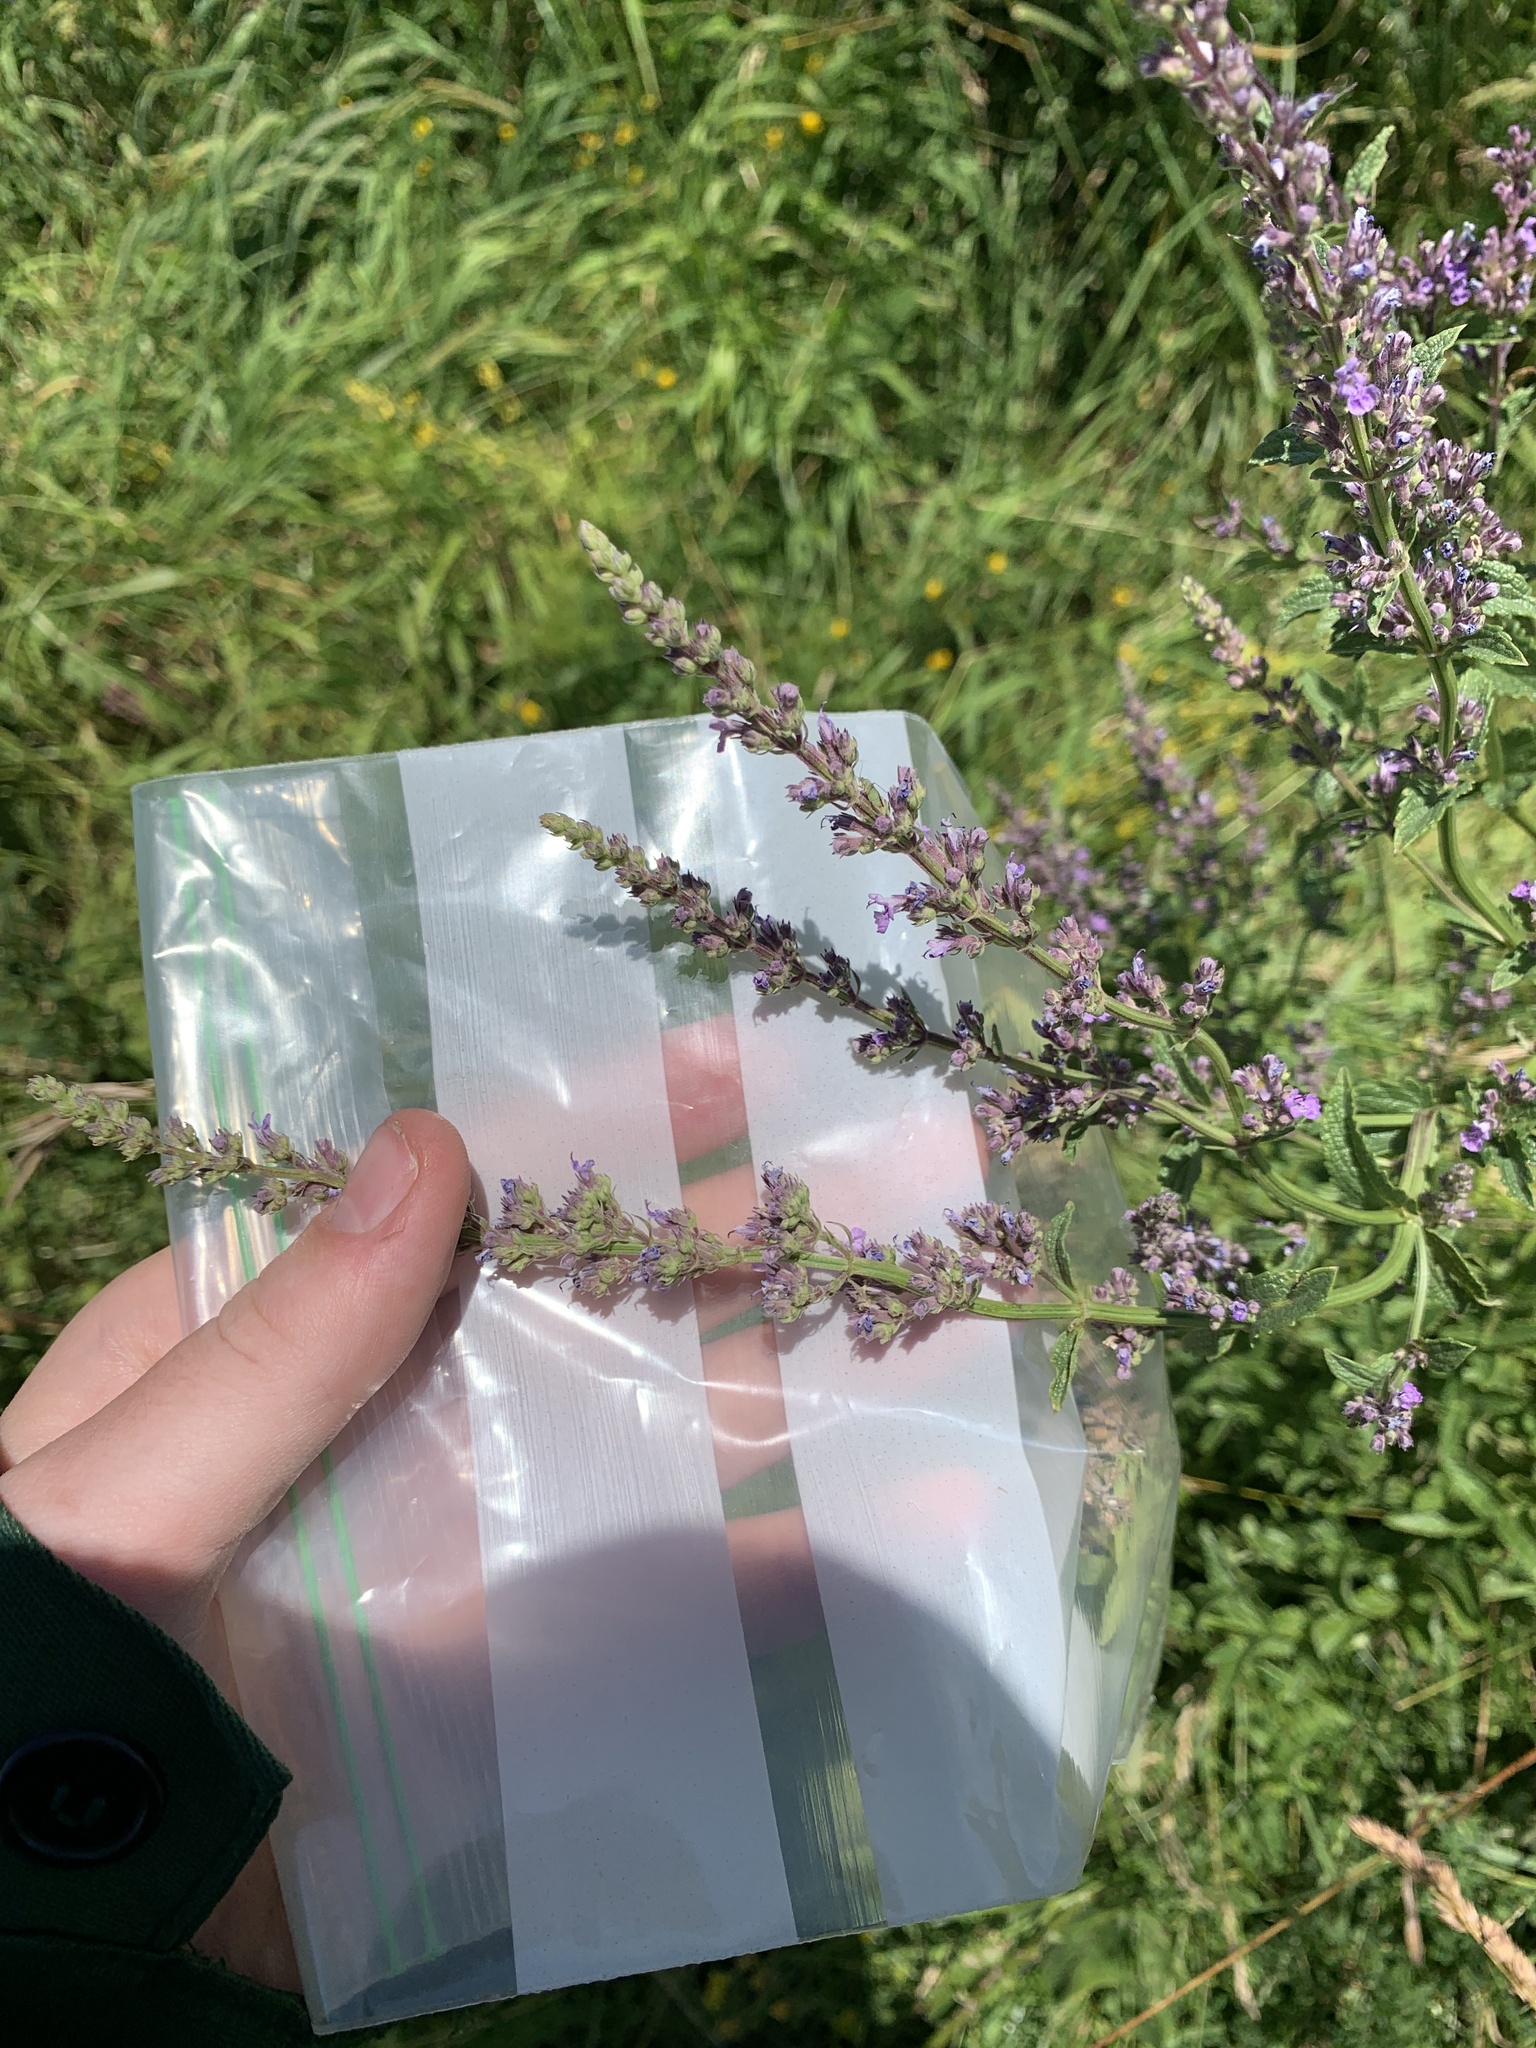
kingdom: Plantae
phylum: Tracheophyta
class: Magnoliopsida
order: Lamiales
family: Lamiaceae
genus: Nepeta
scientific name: Nepeta nuda
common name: Hairless catmint
